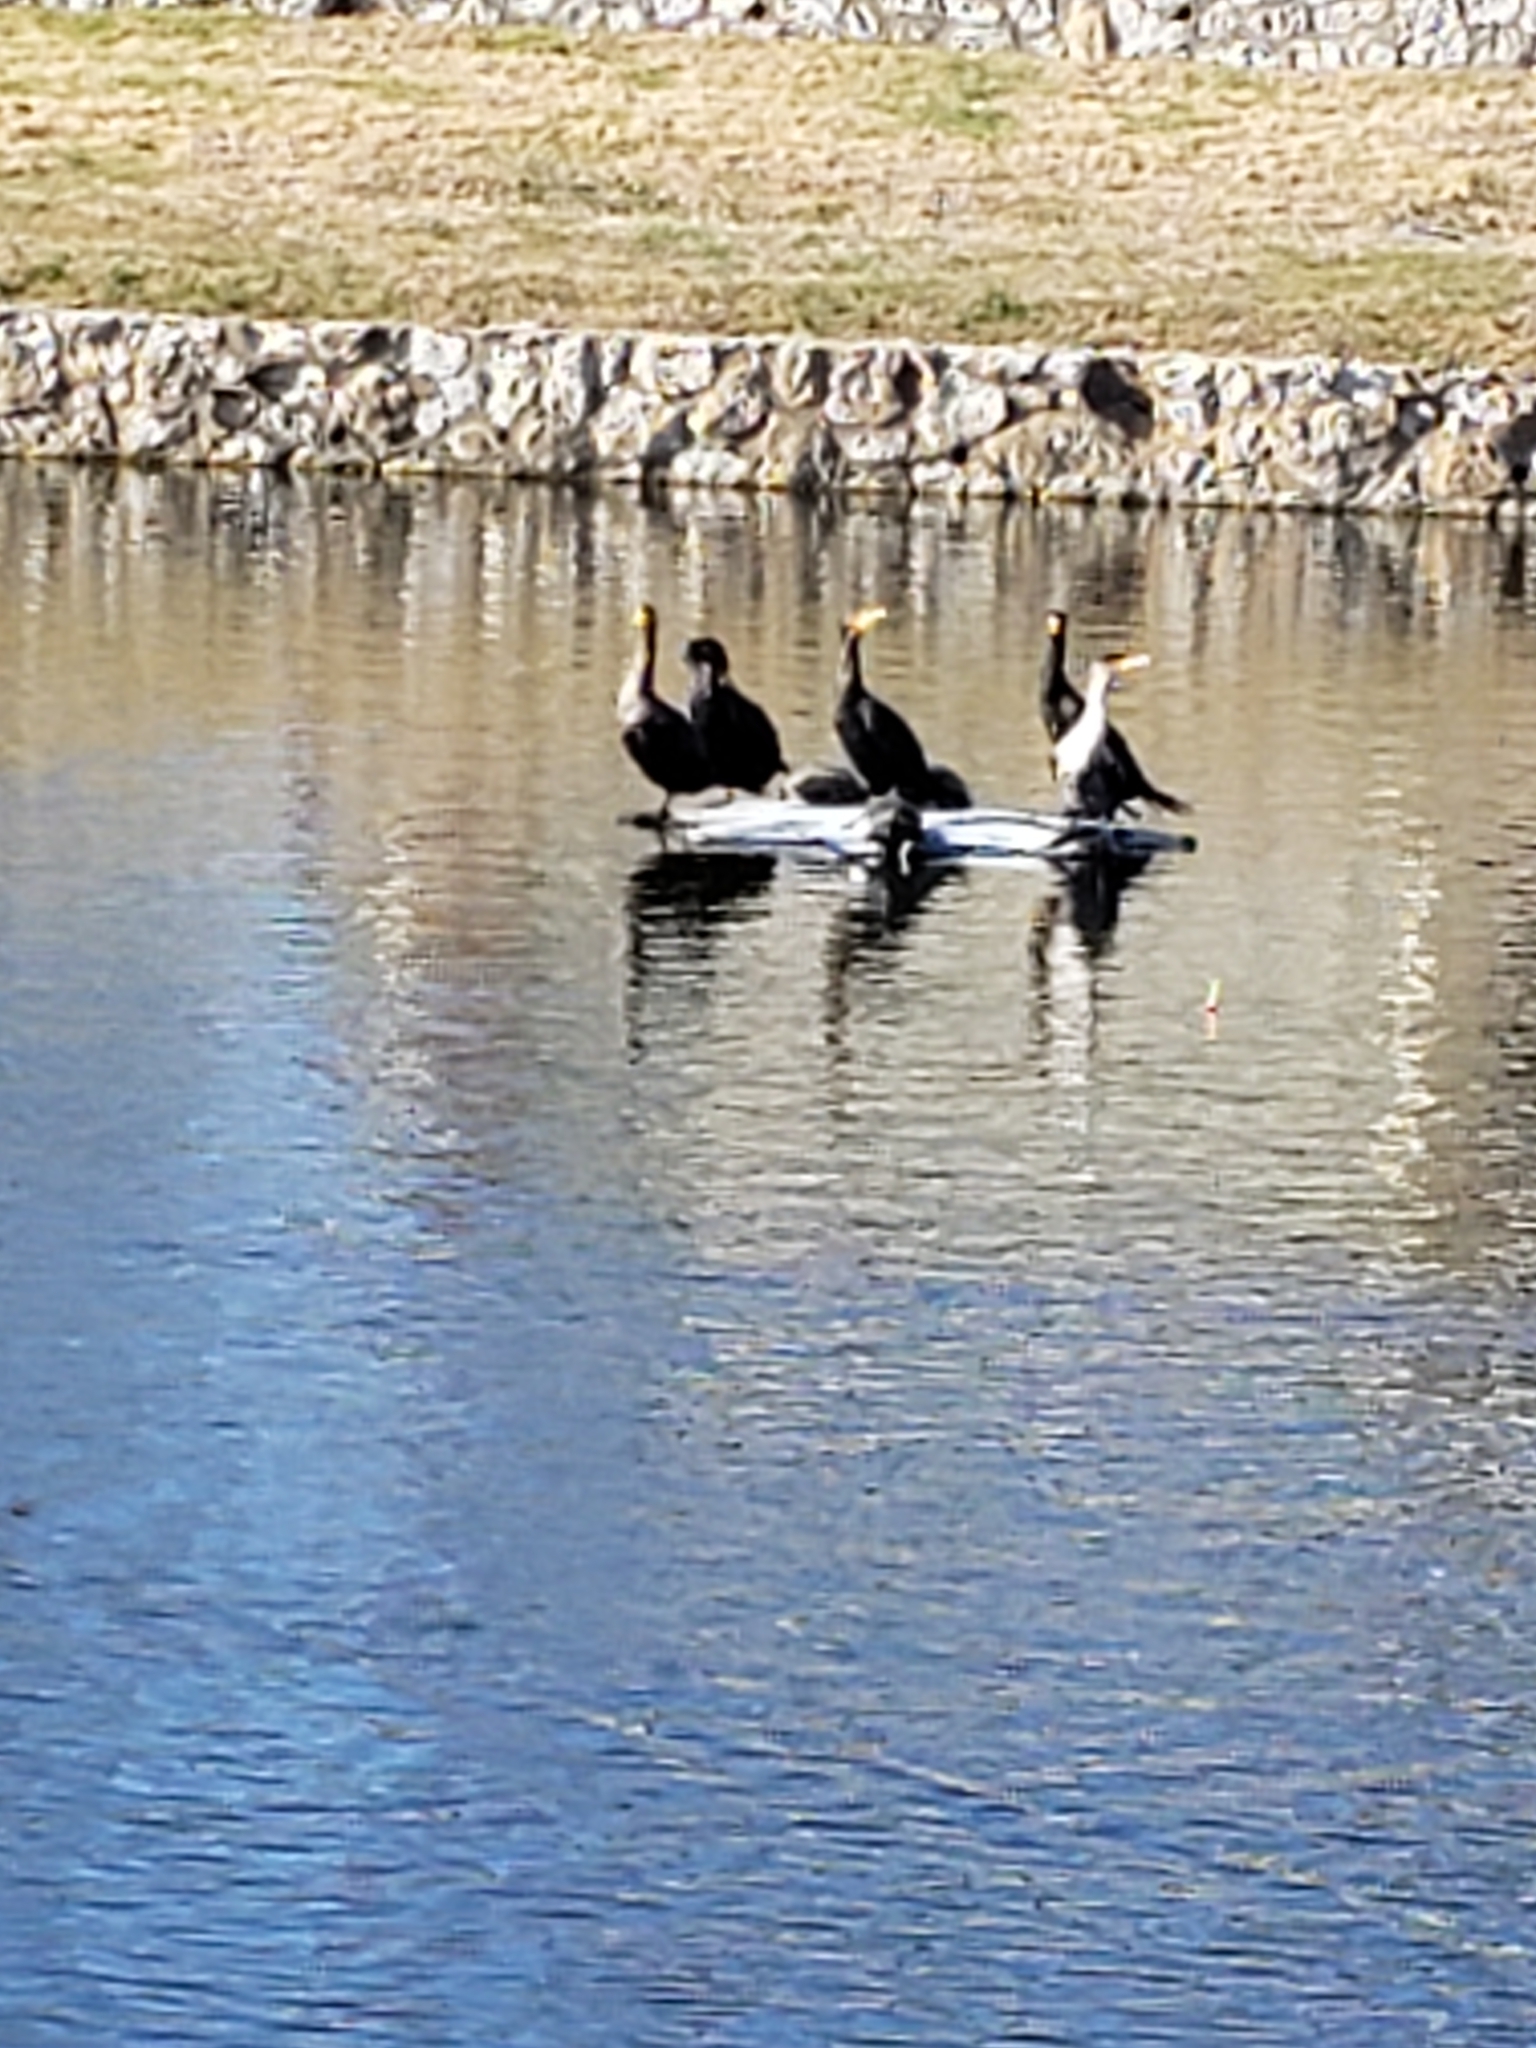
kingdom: Animalia
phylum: Chordata
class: Aves
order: Suliformes
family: Phalacrocoracidae
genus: Phalacrocorax
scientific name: Phalacrocorax auritus
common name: Double-crested cormorant
